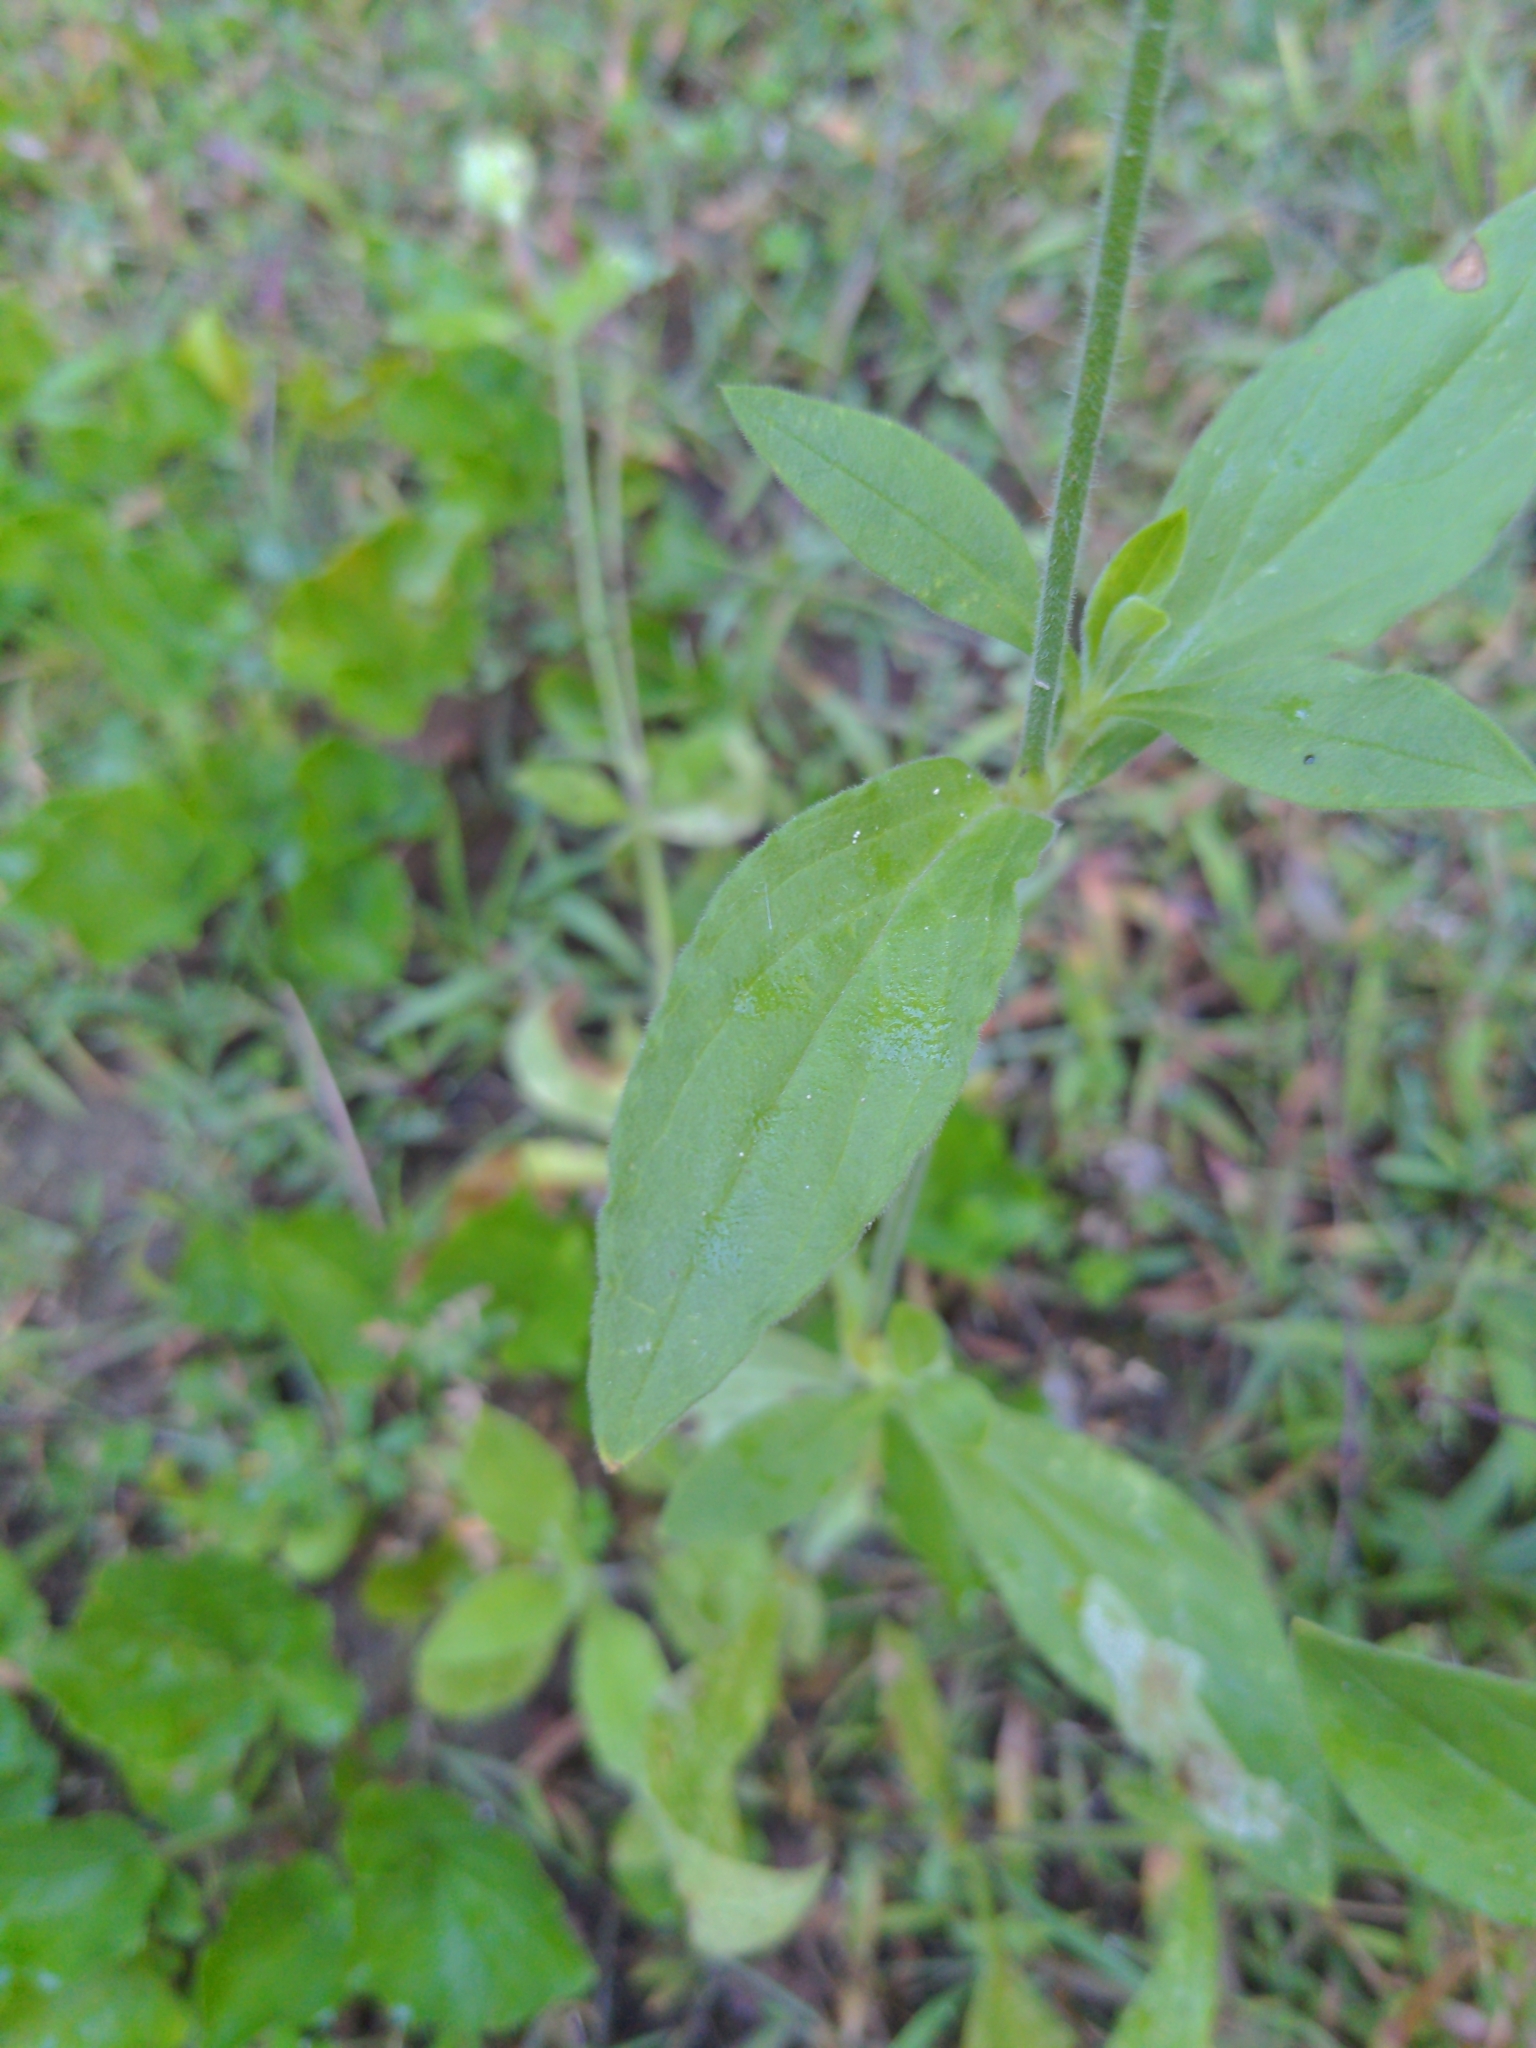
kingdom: Plantae
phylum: Tracheophyta
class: Magnoliopsida
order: Caryophyllales
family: Caryophyllaceae
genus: Silene
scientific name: Silene latifolia
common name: White campion
